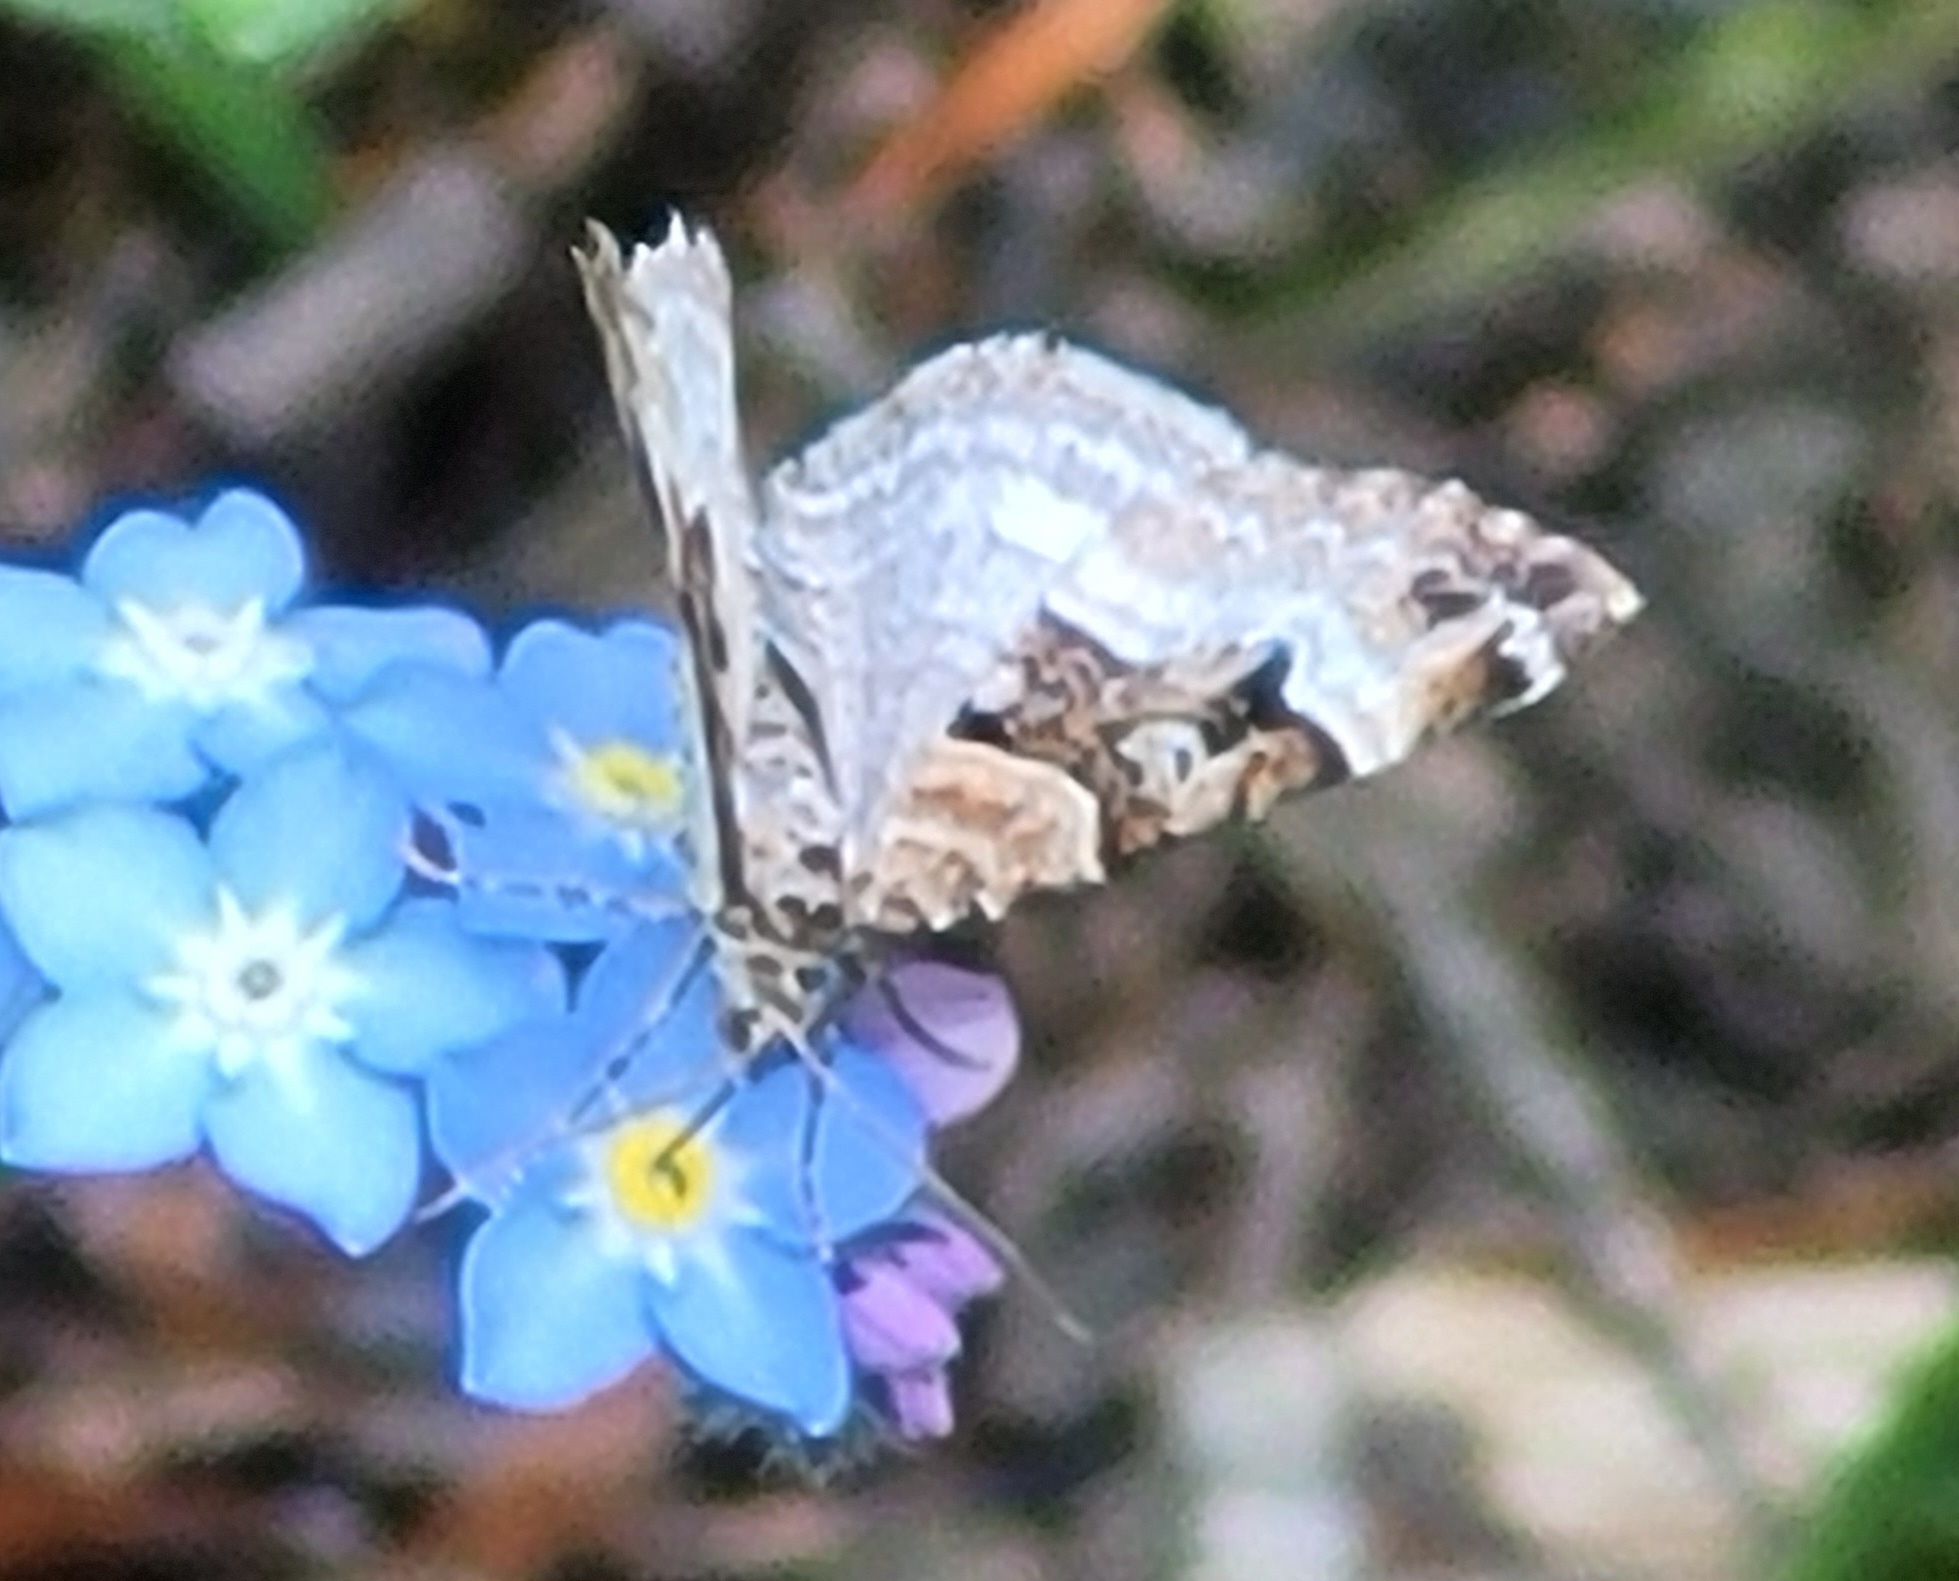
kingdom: Animalia
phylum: Arthropoda
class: Insecta
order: Lepidoptera
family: Geometridae
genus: Xanthorhoe
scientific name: Xanthorhoe biriviata
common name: Balsam carpet
